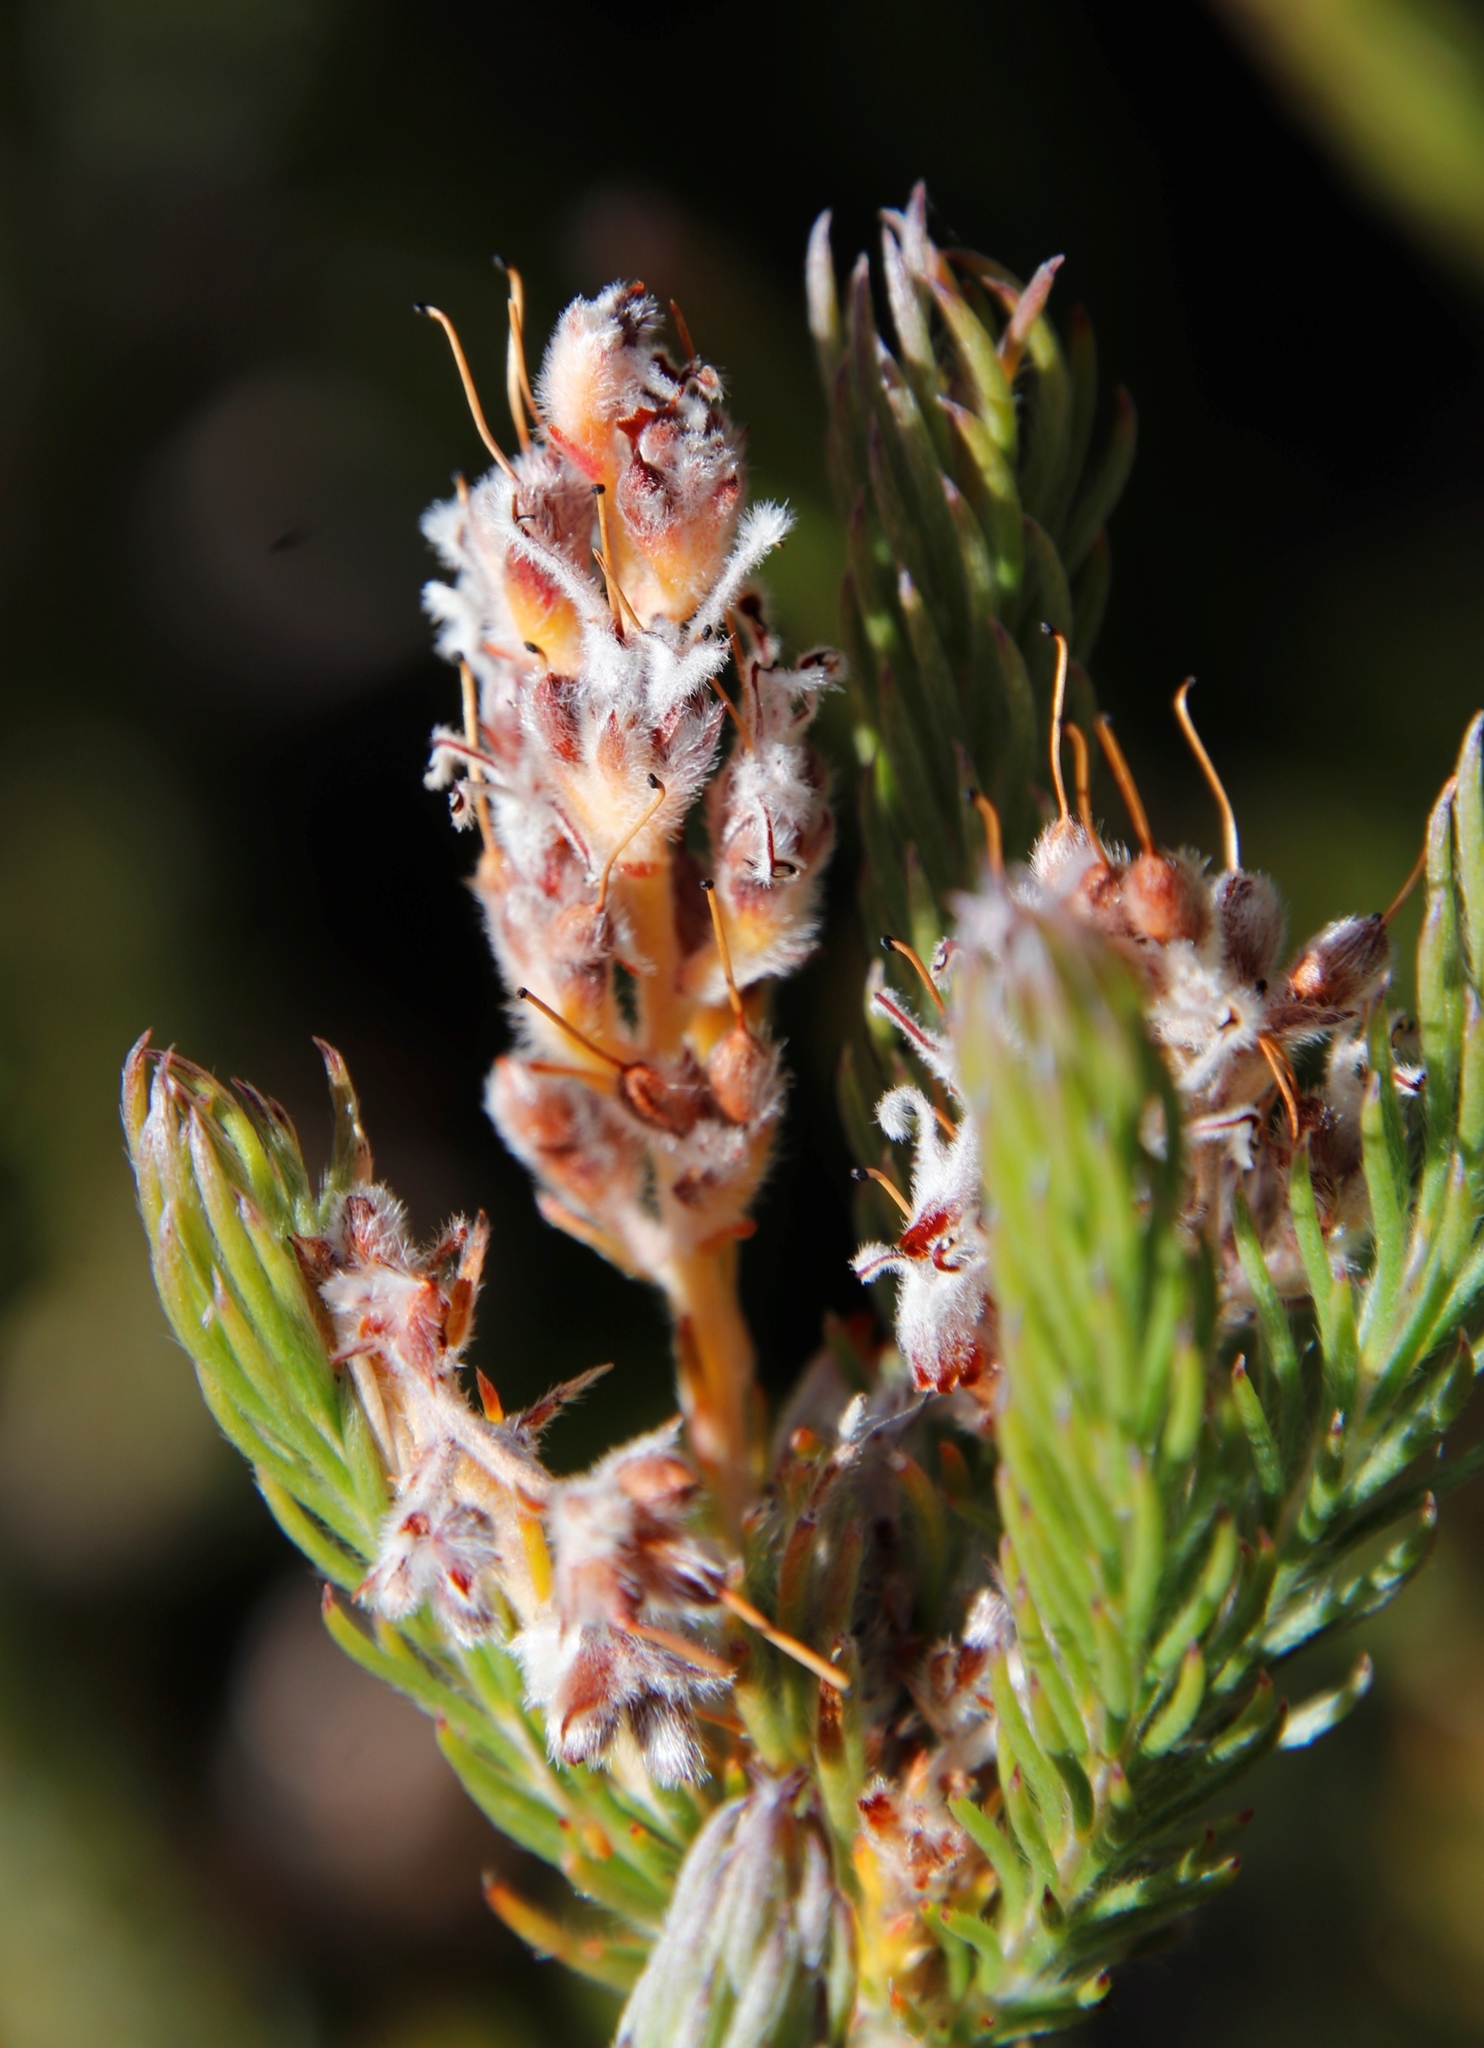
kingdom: Plantae
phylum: Tracheophyta
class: Magnoliopsida
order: Proteales
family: Proteaceae
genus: Spatalla
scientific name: Spatalla caudata
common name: Woolly-hair spoon
